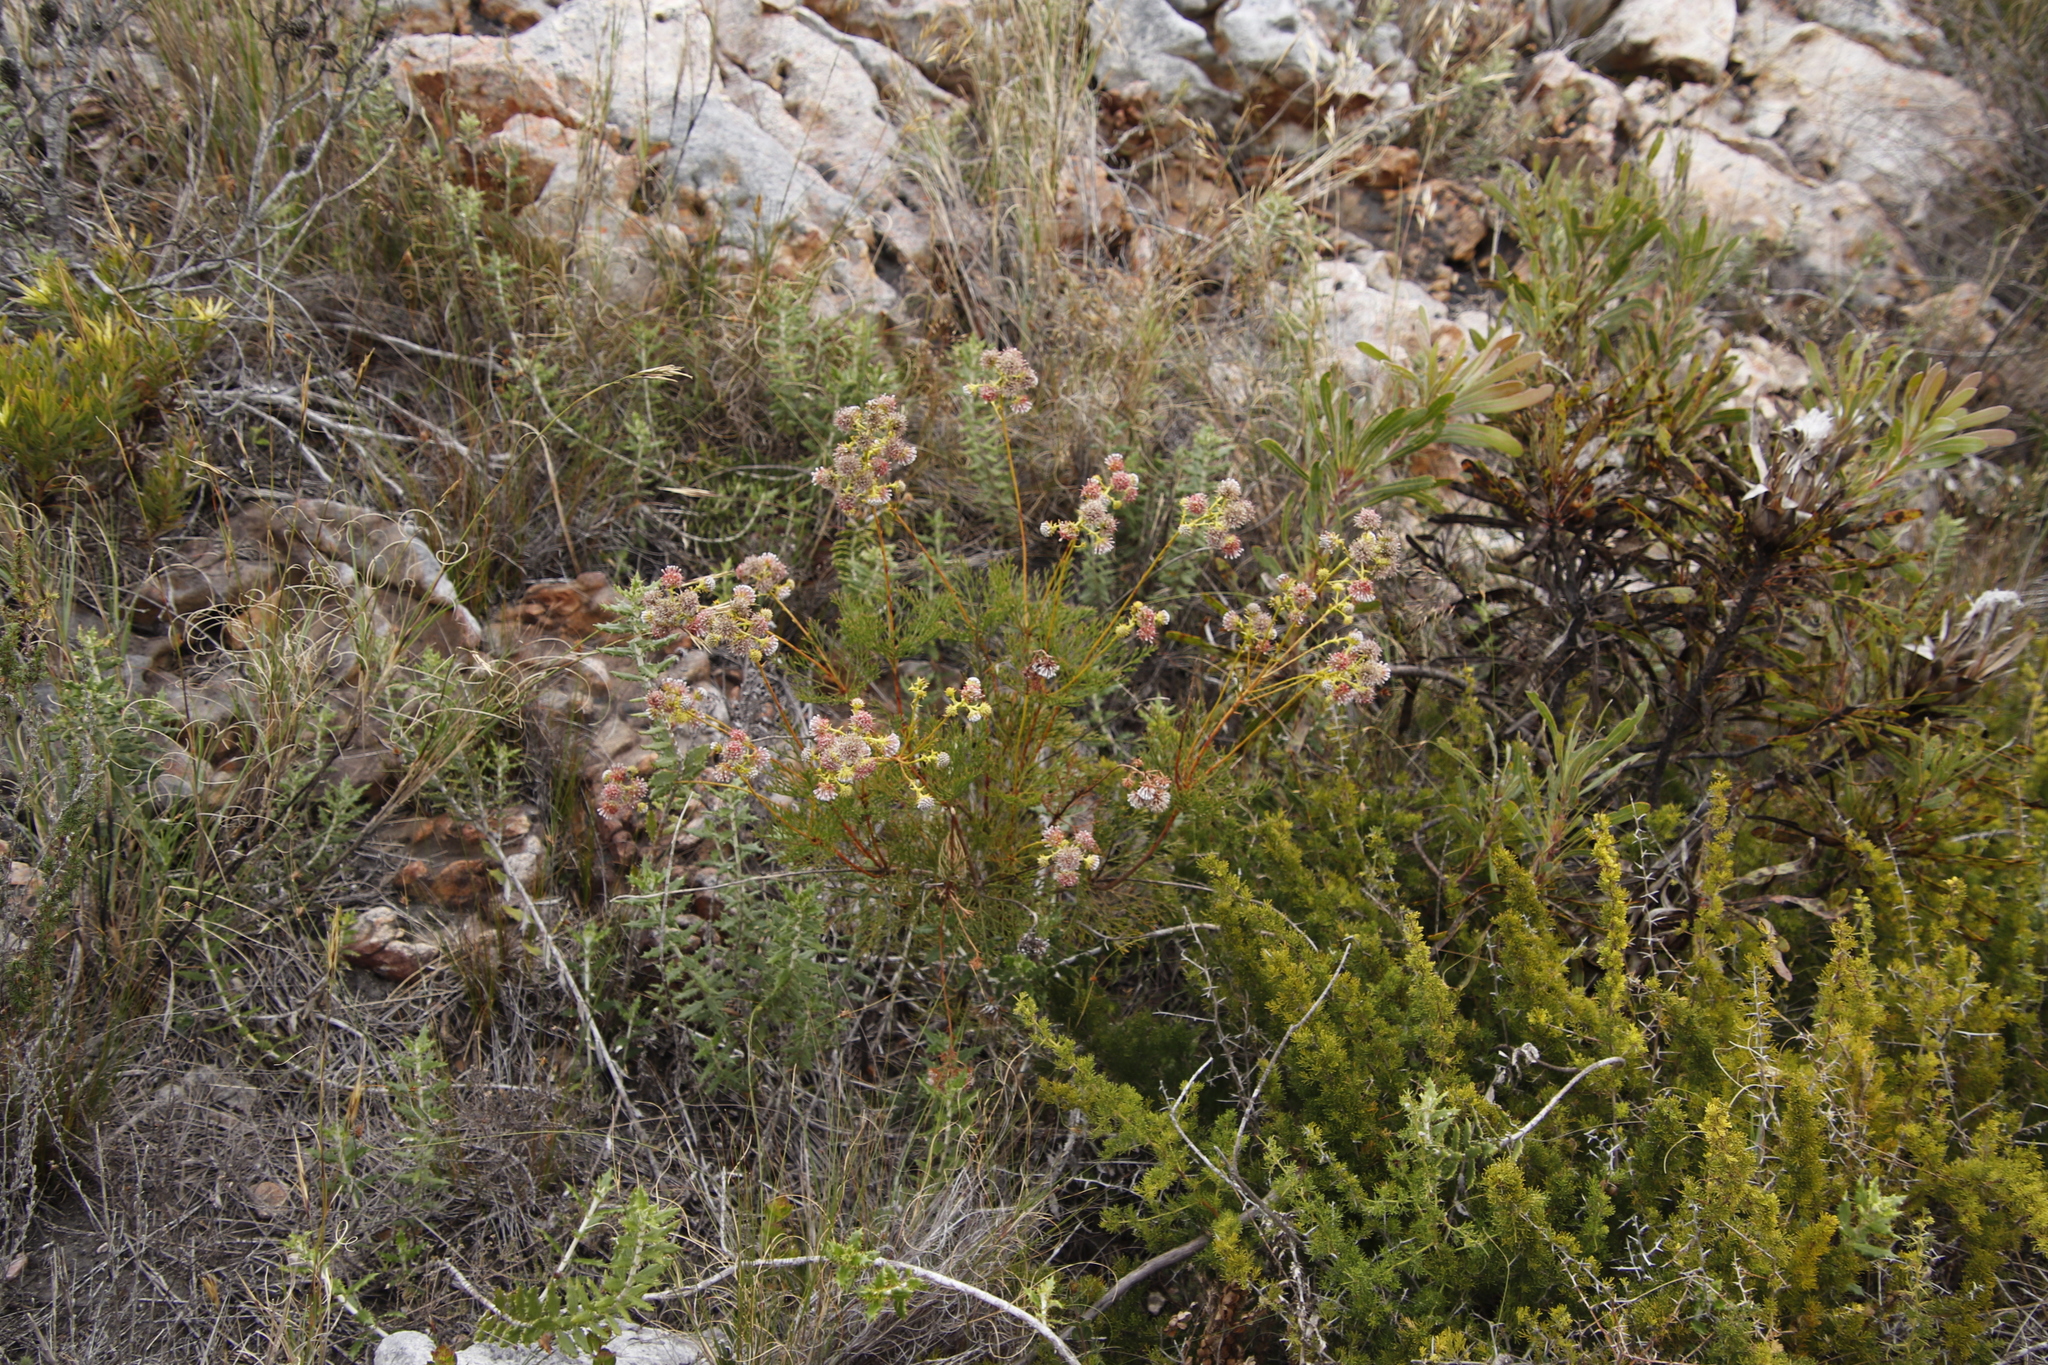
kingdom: Plantae
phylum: Tracheophyta
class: Magnoliopsida
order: Proteales
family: Proteaceae
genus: Serruria
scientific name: Serruria elongata
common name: Long-stalk spiderhead
